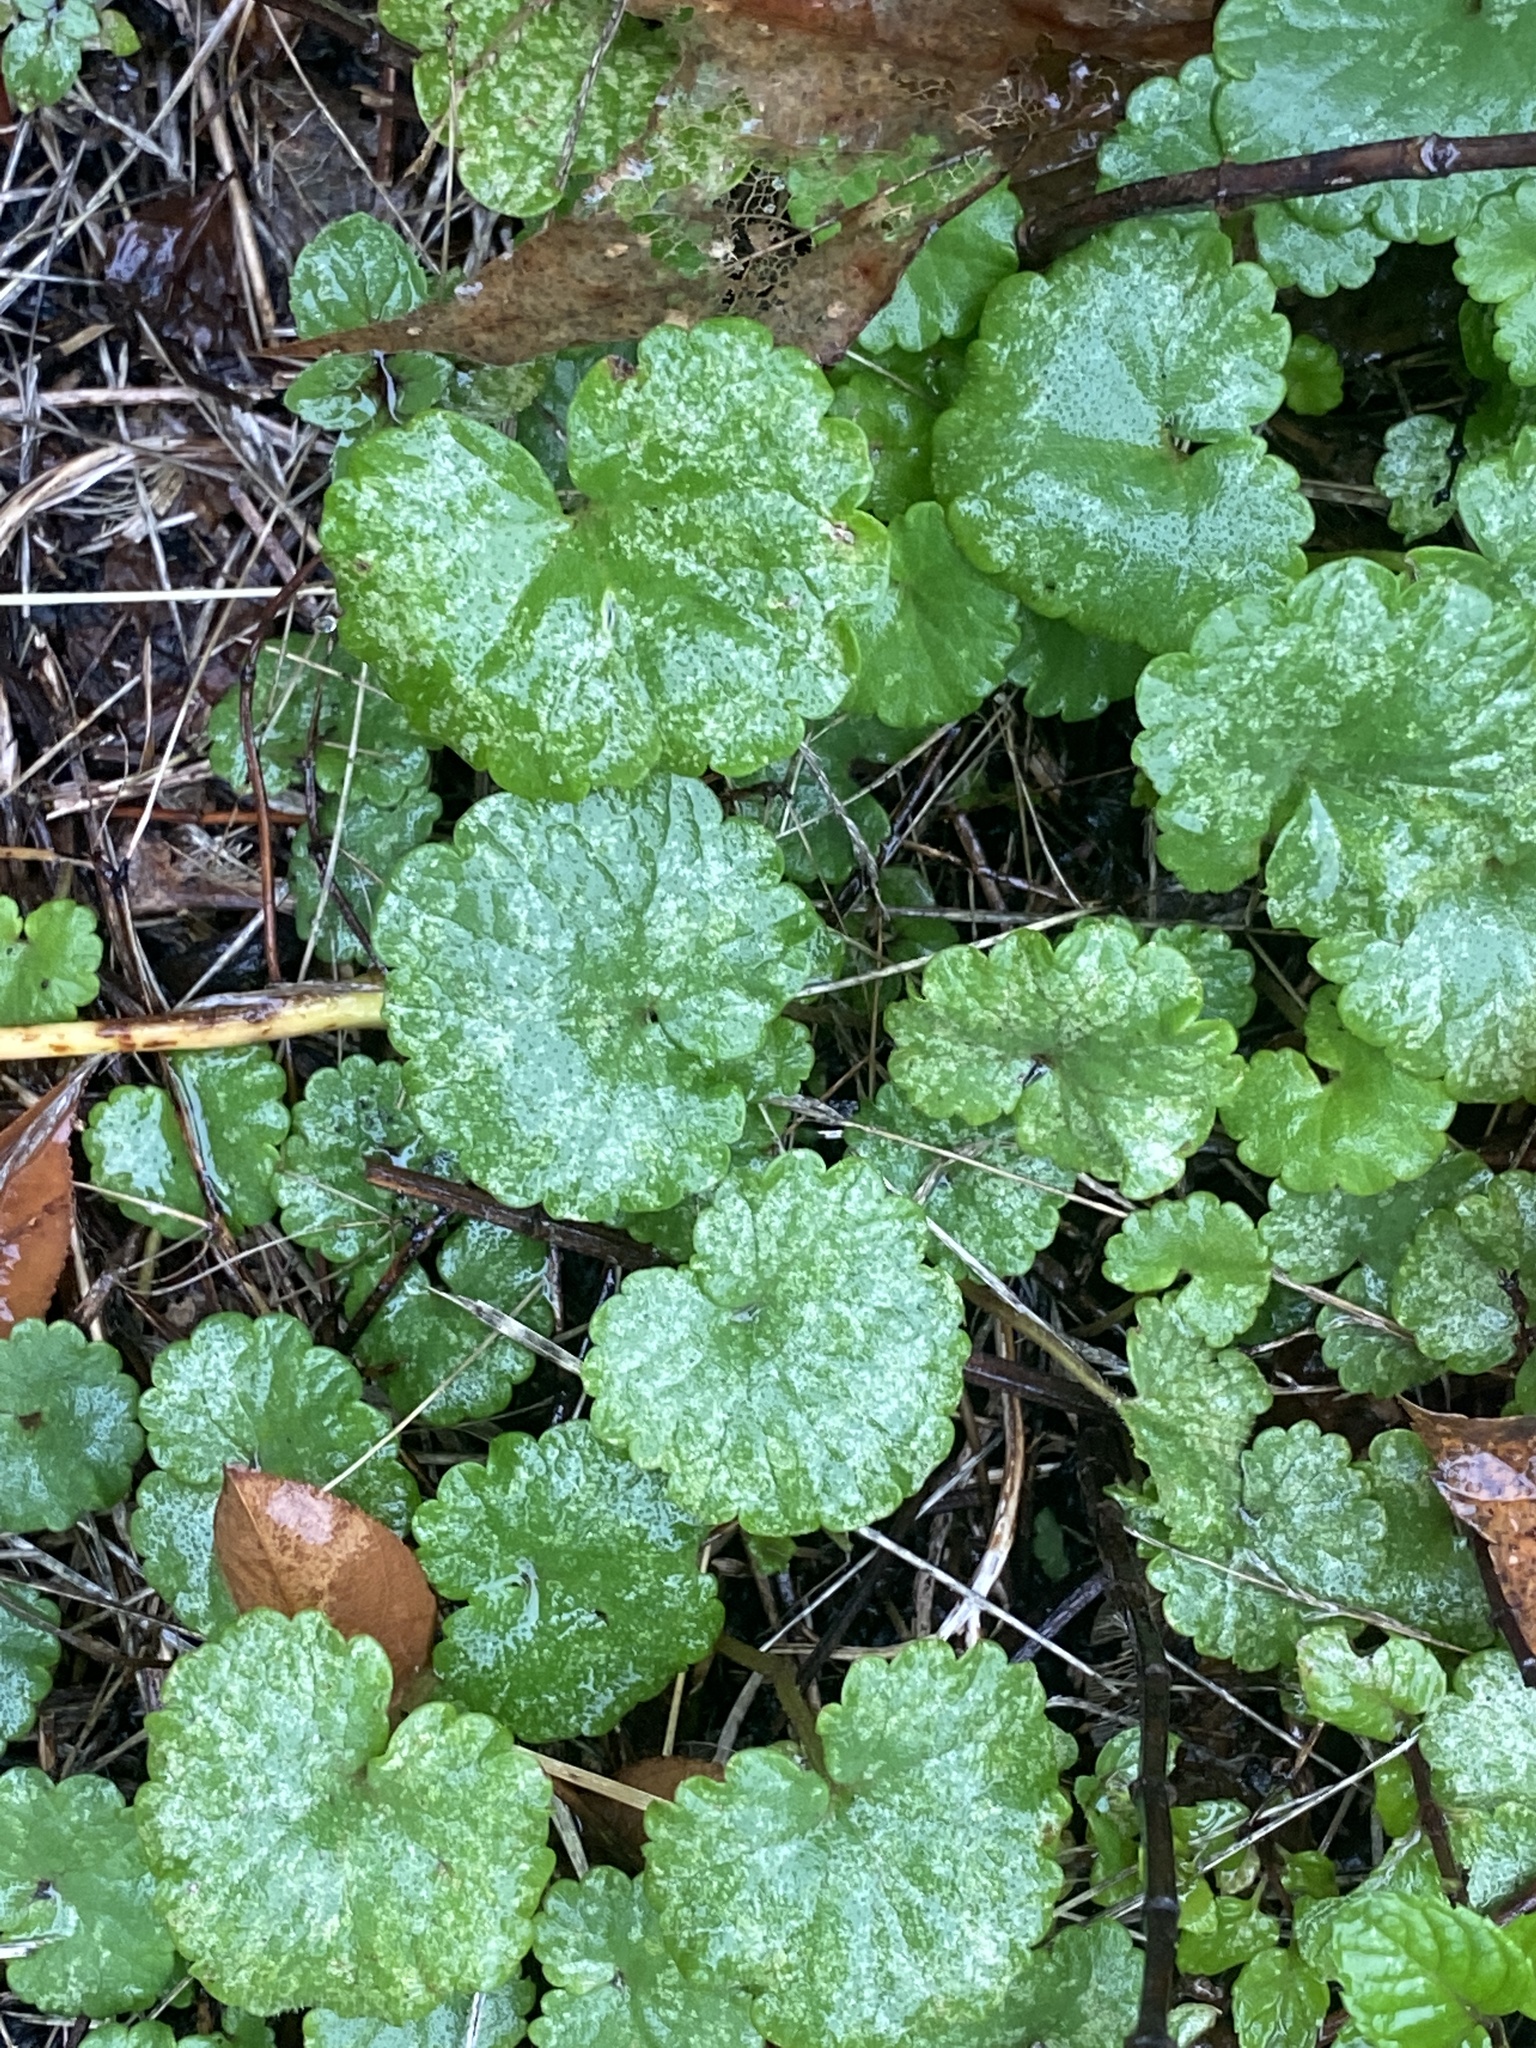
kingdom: Plantae
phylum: Tracheophyta
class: Magnoliopsida
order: Lamiales
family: Lamiaceae
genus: Glechoma
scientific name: Glechoma hederacea
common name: Ground ivy
